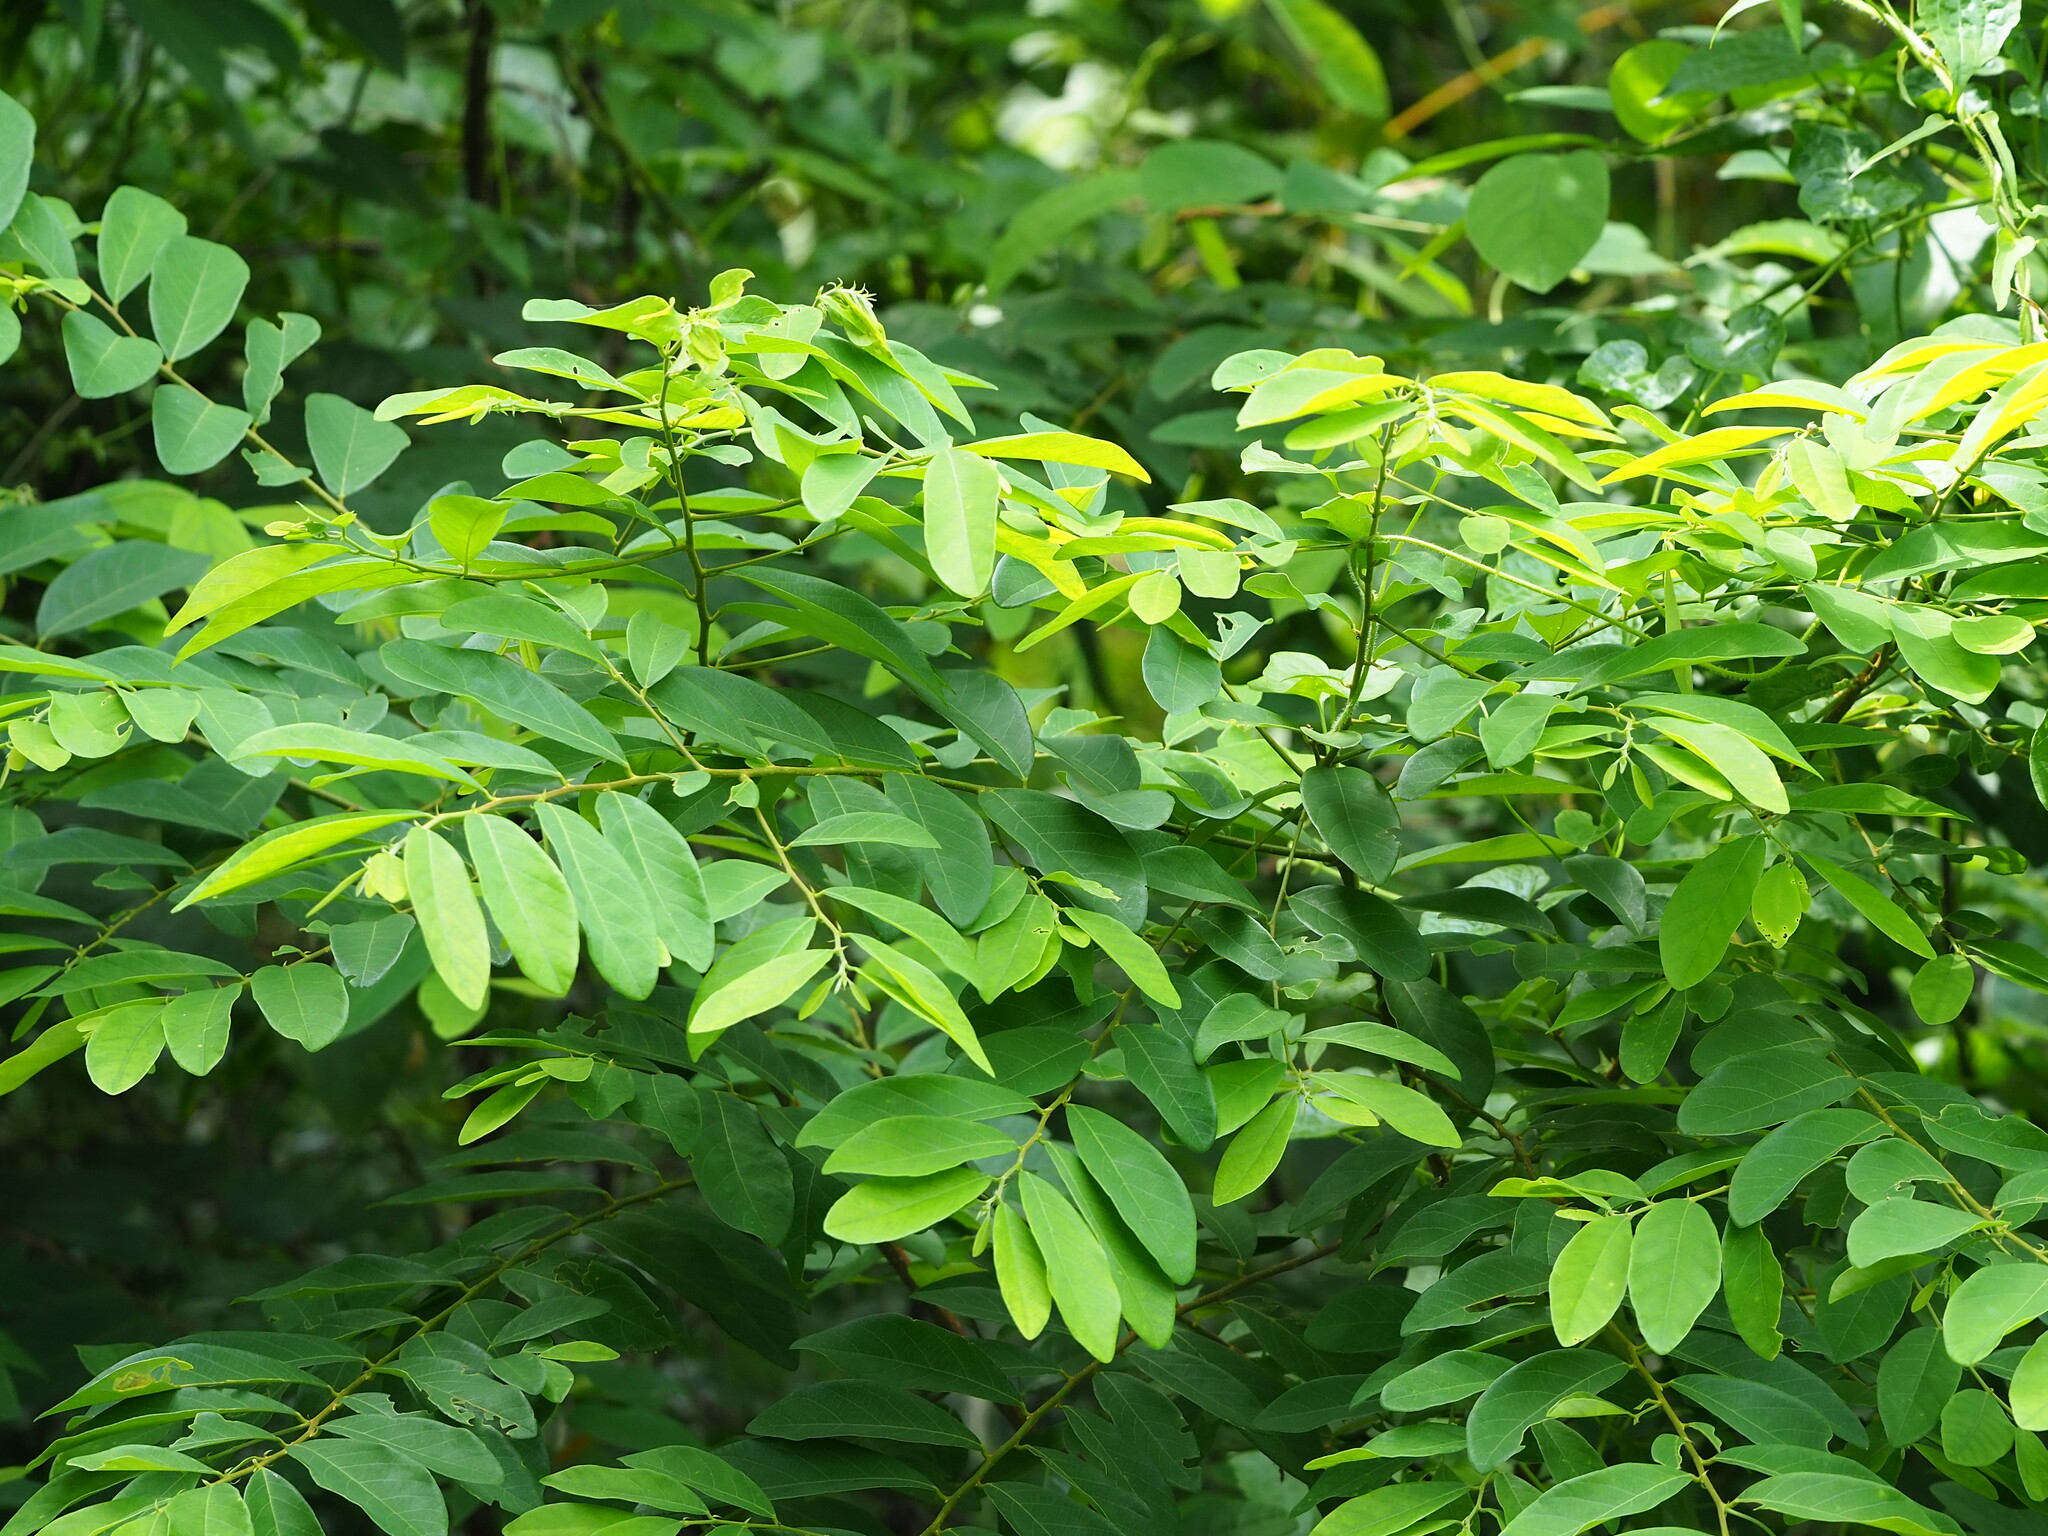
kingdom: Plantae
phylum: Tracheophyta
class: Magnoliopsida
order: Malpighiales
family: Phyllanthaceae
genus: Bridelia
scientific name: Bridelia tomentosa
